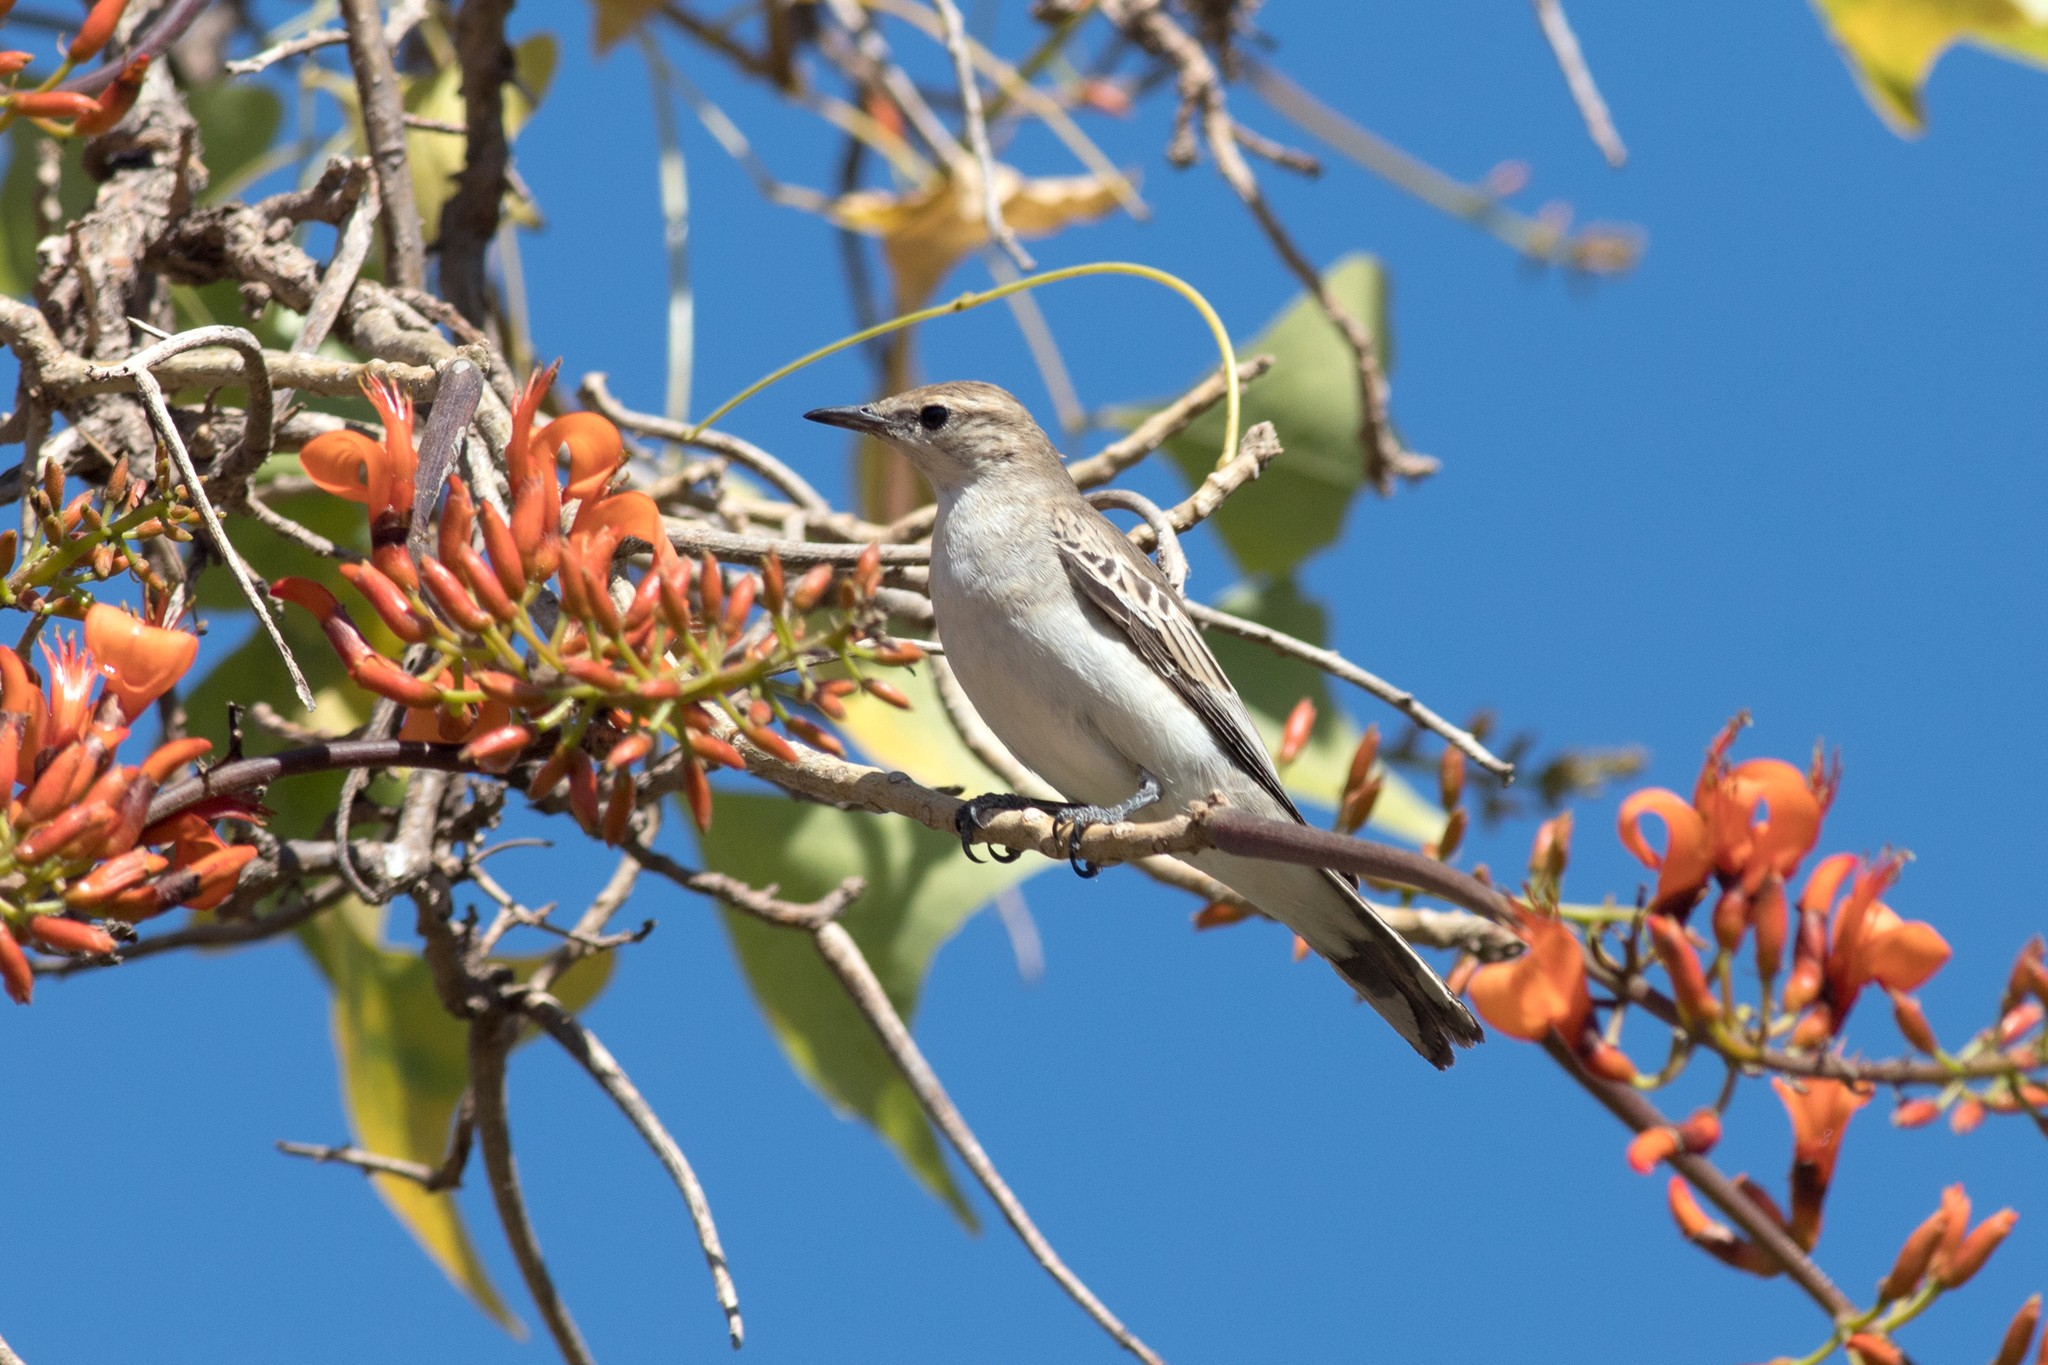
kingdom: Animalia
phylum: Chordata
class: Aves
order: Passeriformes
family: Campephagidae
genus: Lalage
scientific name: Lalage tricolor
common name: White-winged triller
